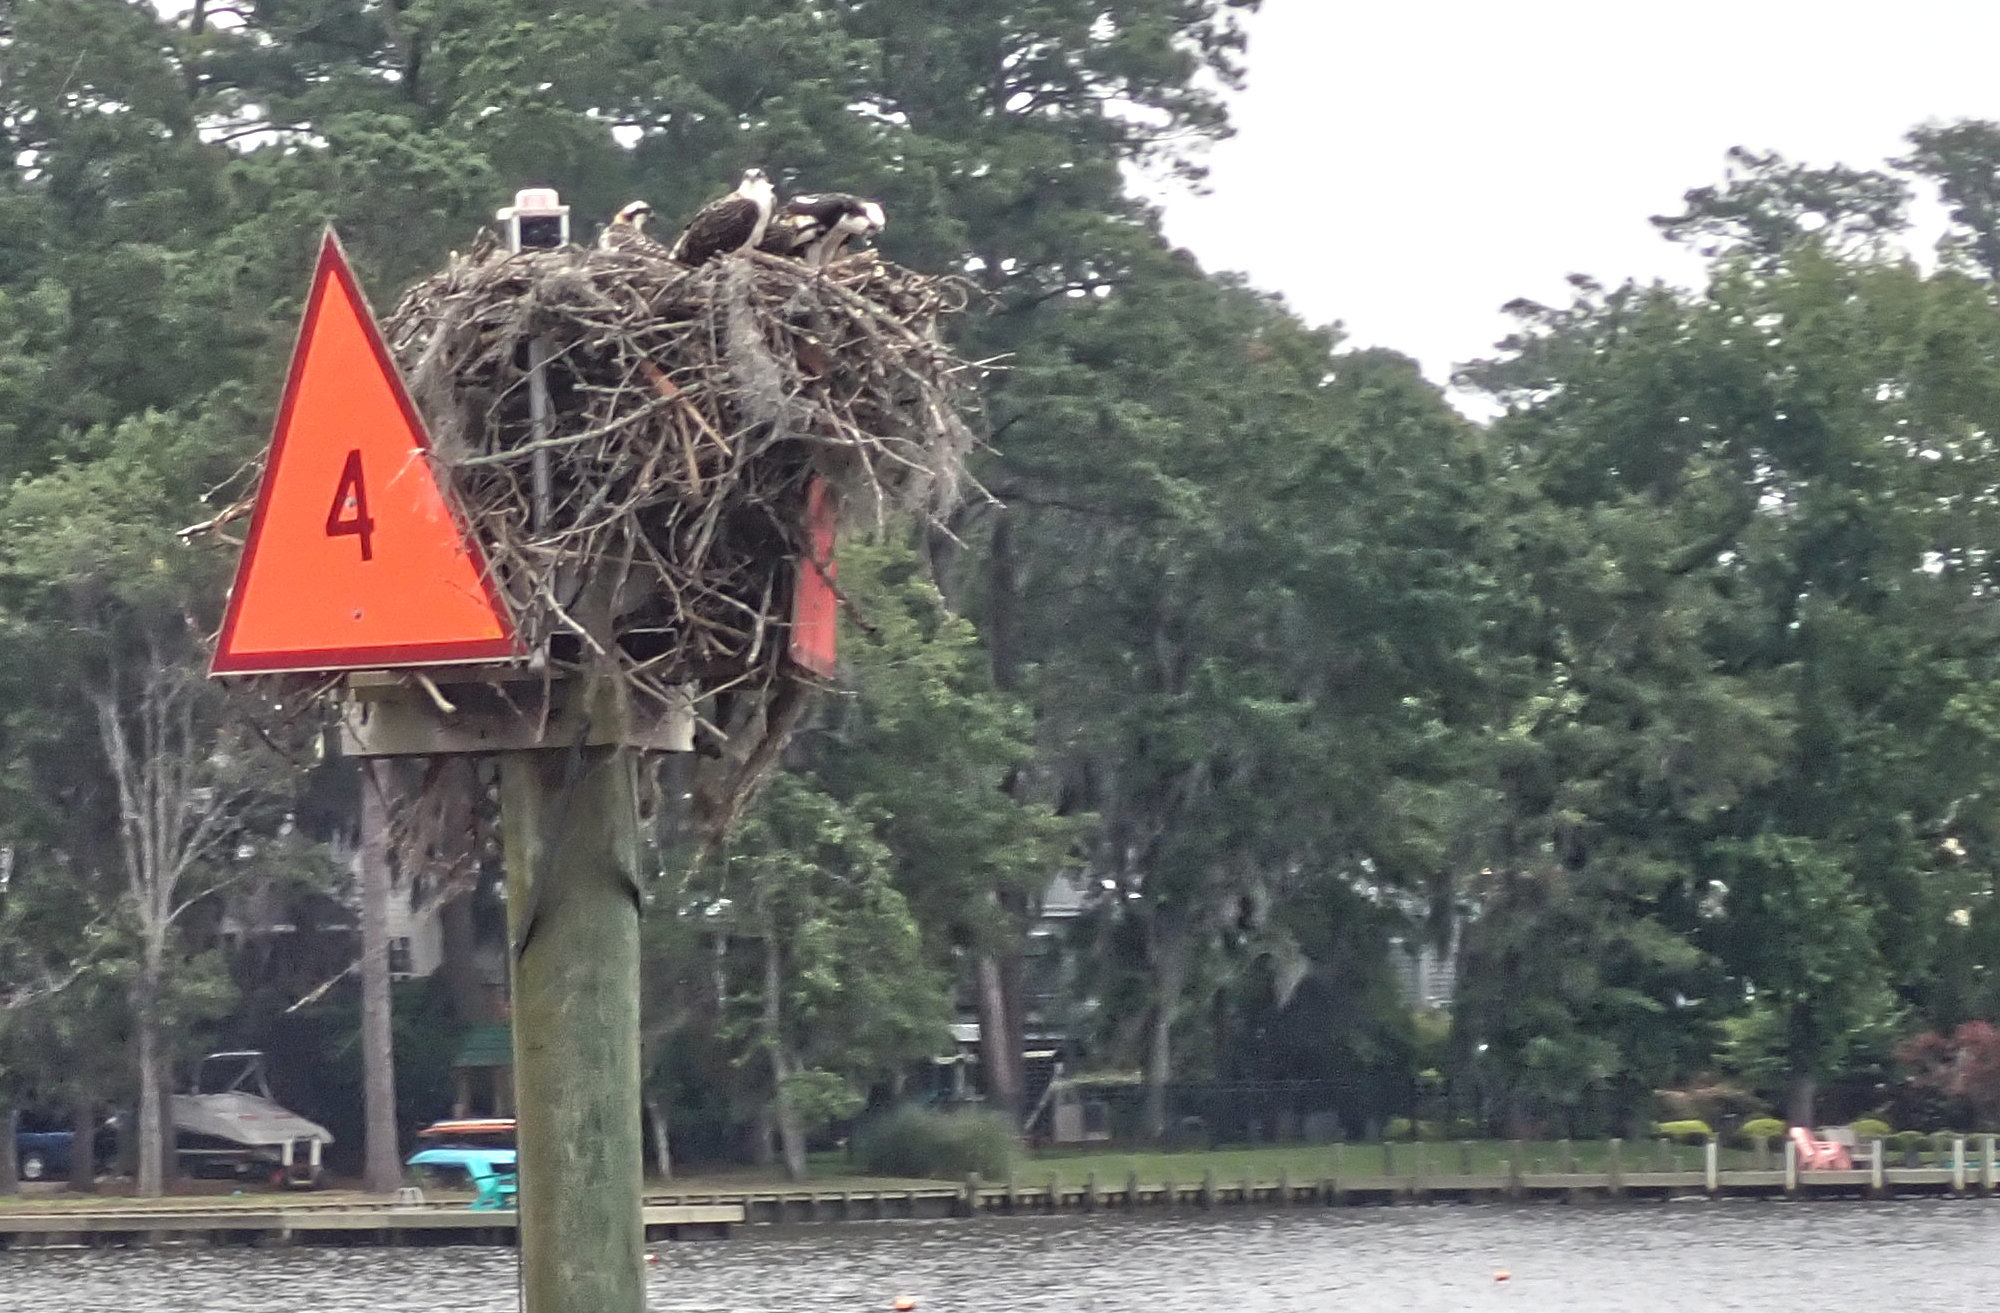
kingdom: Animalia
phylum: Chordata
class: Aves
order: Accipitriformes
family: Pandionidae
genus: Pandion
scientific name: Pandion haliaetus
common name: Osprey
